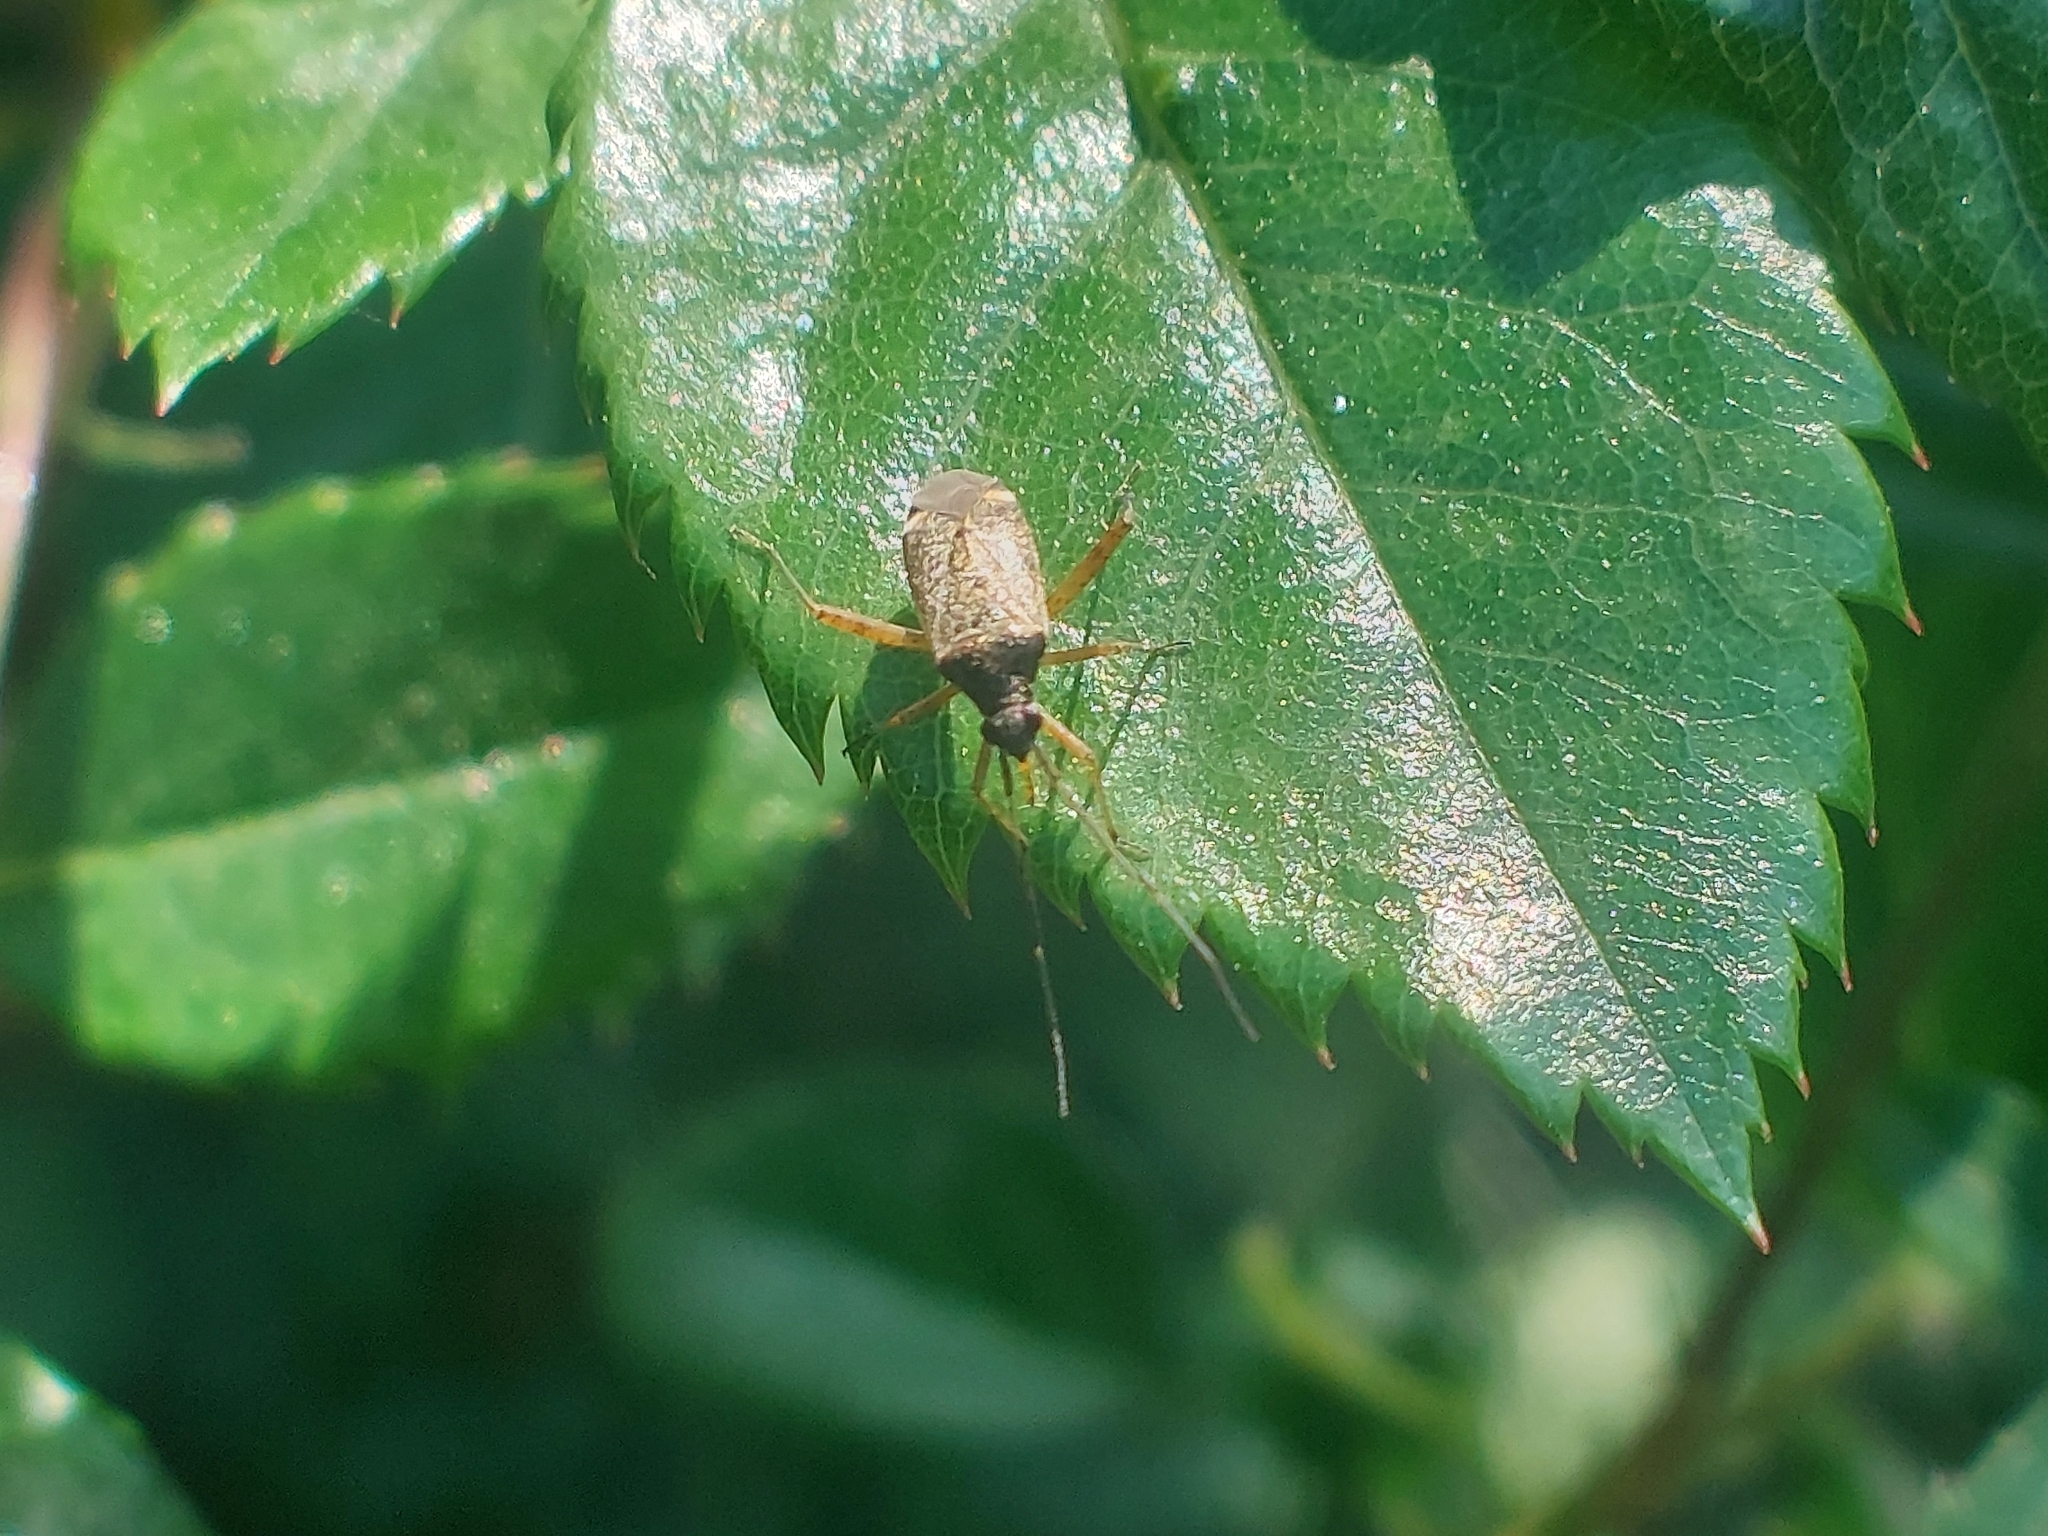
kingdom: Animalia
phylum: Arthropoda
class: Insecta
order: Hemiptera
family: Miridae
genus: Closterotomus
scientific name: Closterotomus fulvomaculatus
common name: Spotted plant bug
